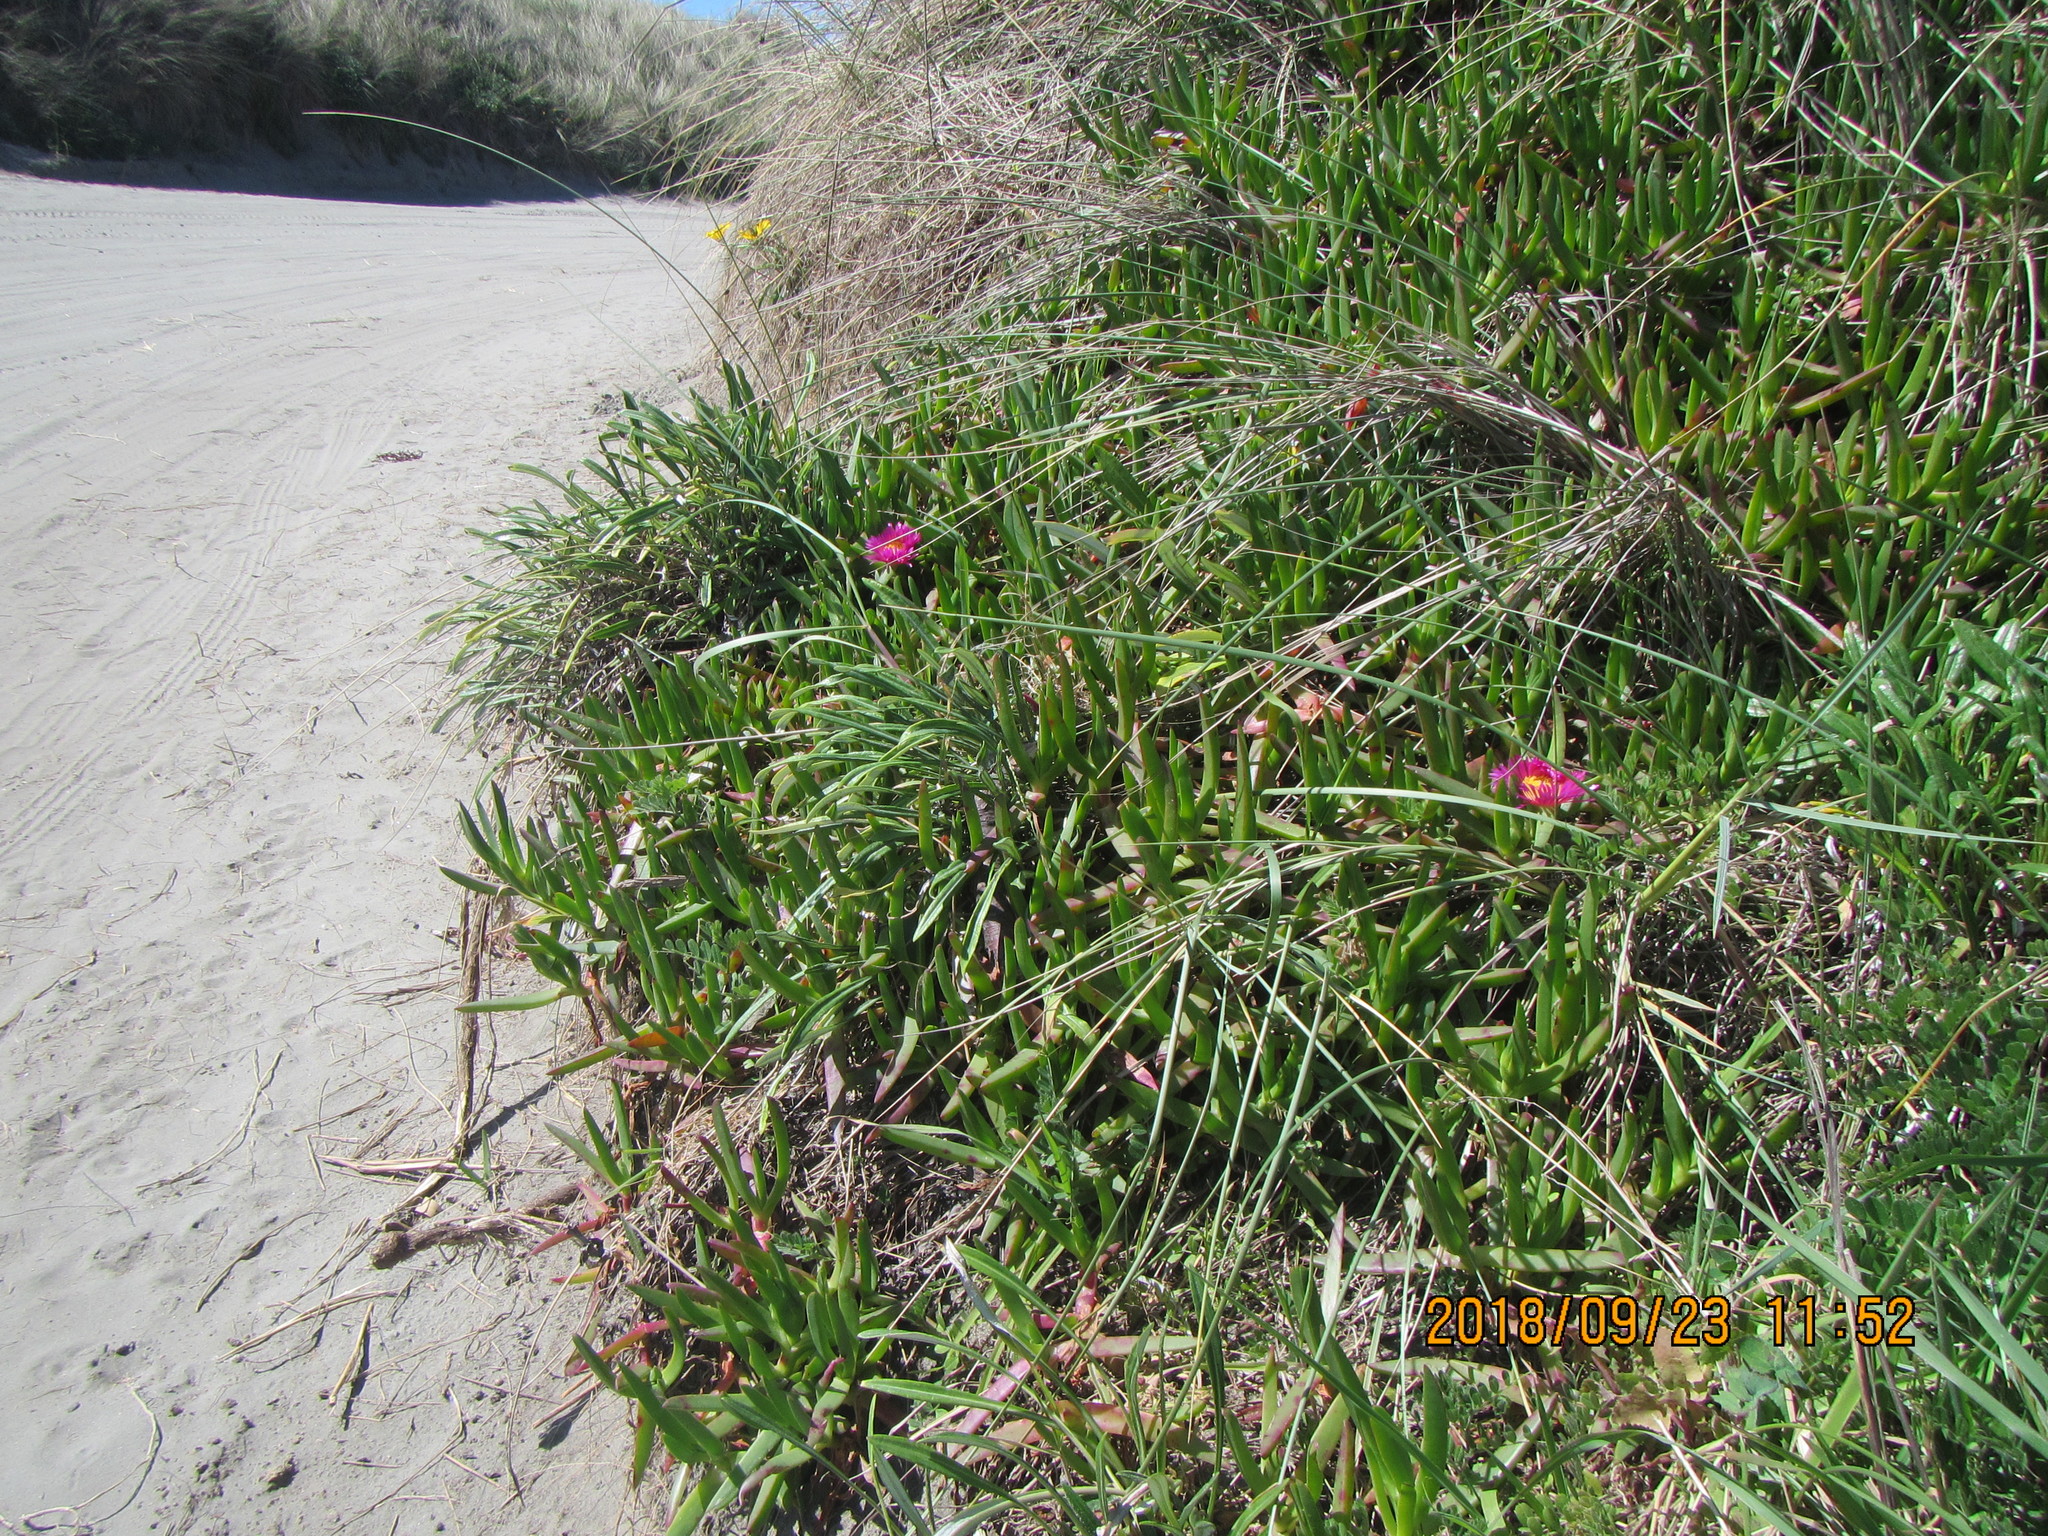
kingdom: Plantae
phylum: Tracheophyta
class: Magnoliopsida
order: Caryophyllales
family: Aizoaceae
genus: Carpobrotus
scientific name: Carpobrotus chilensis
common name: Sea fig
